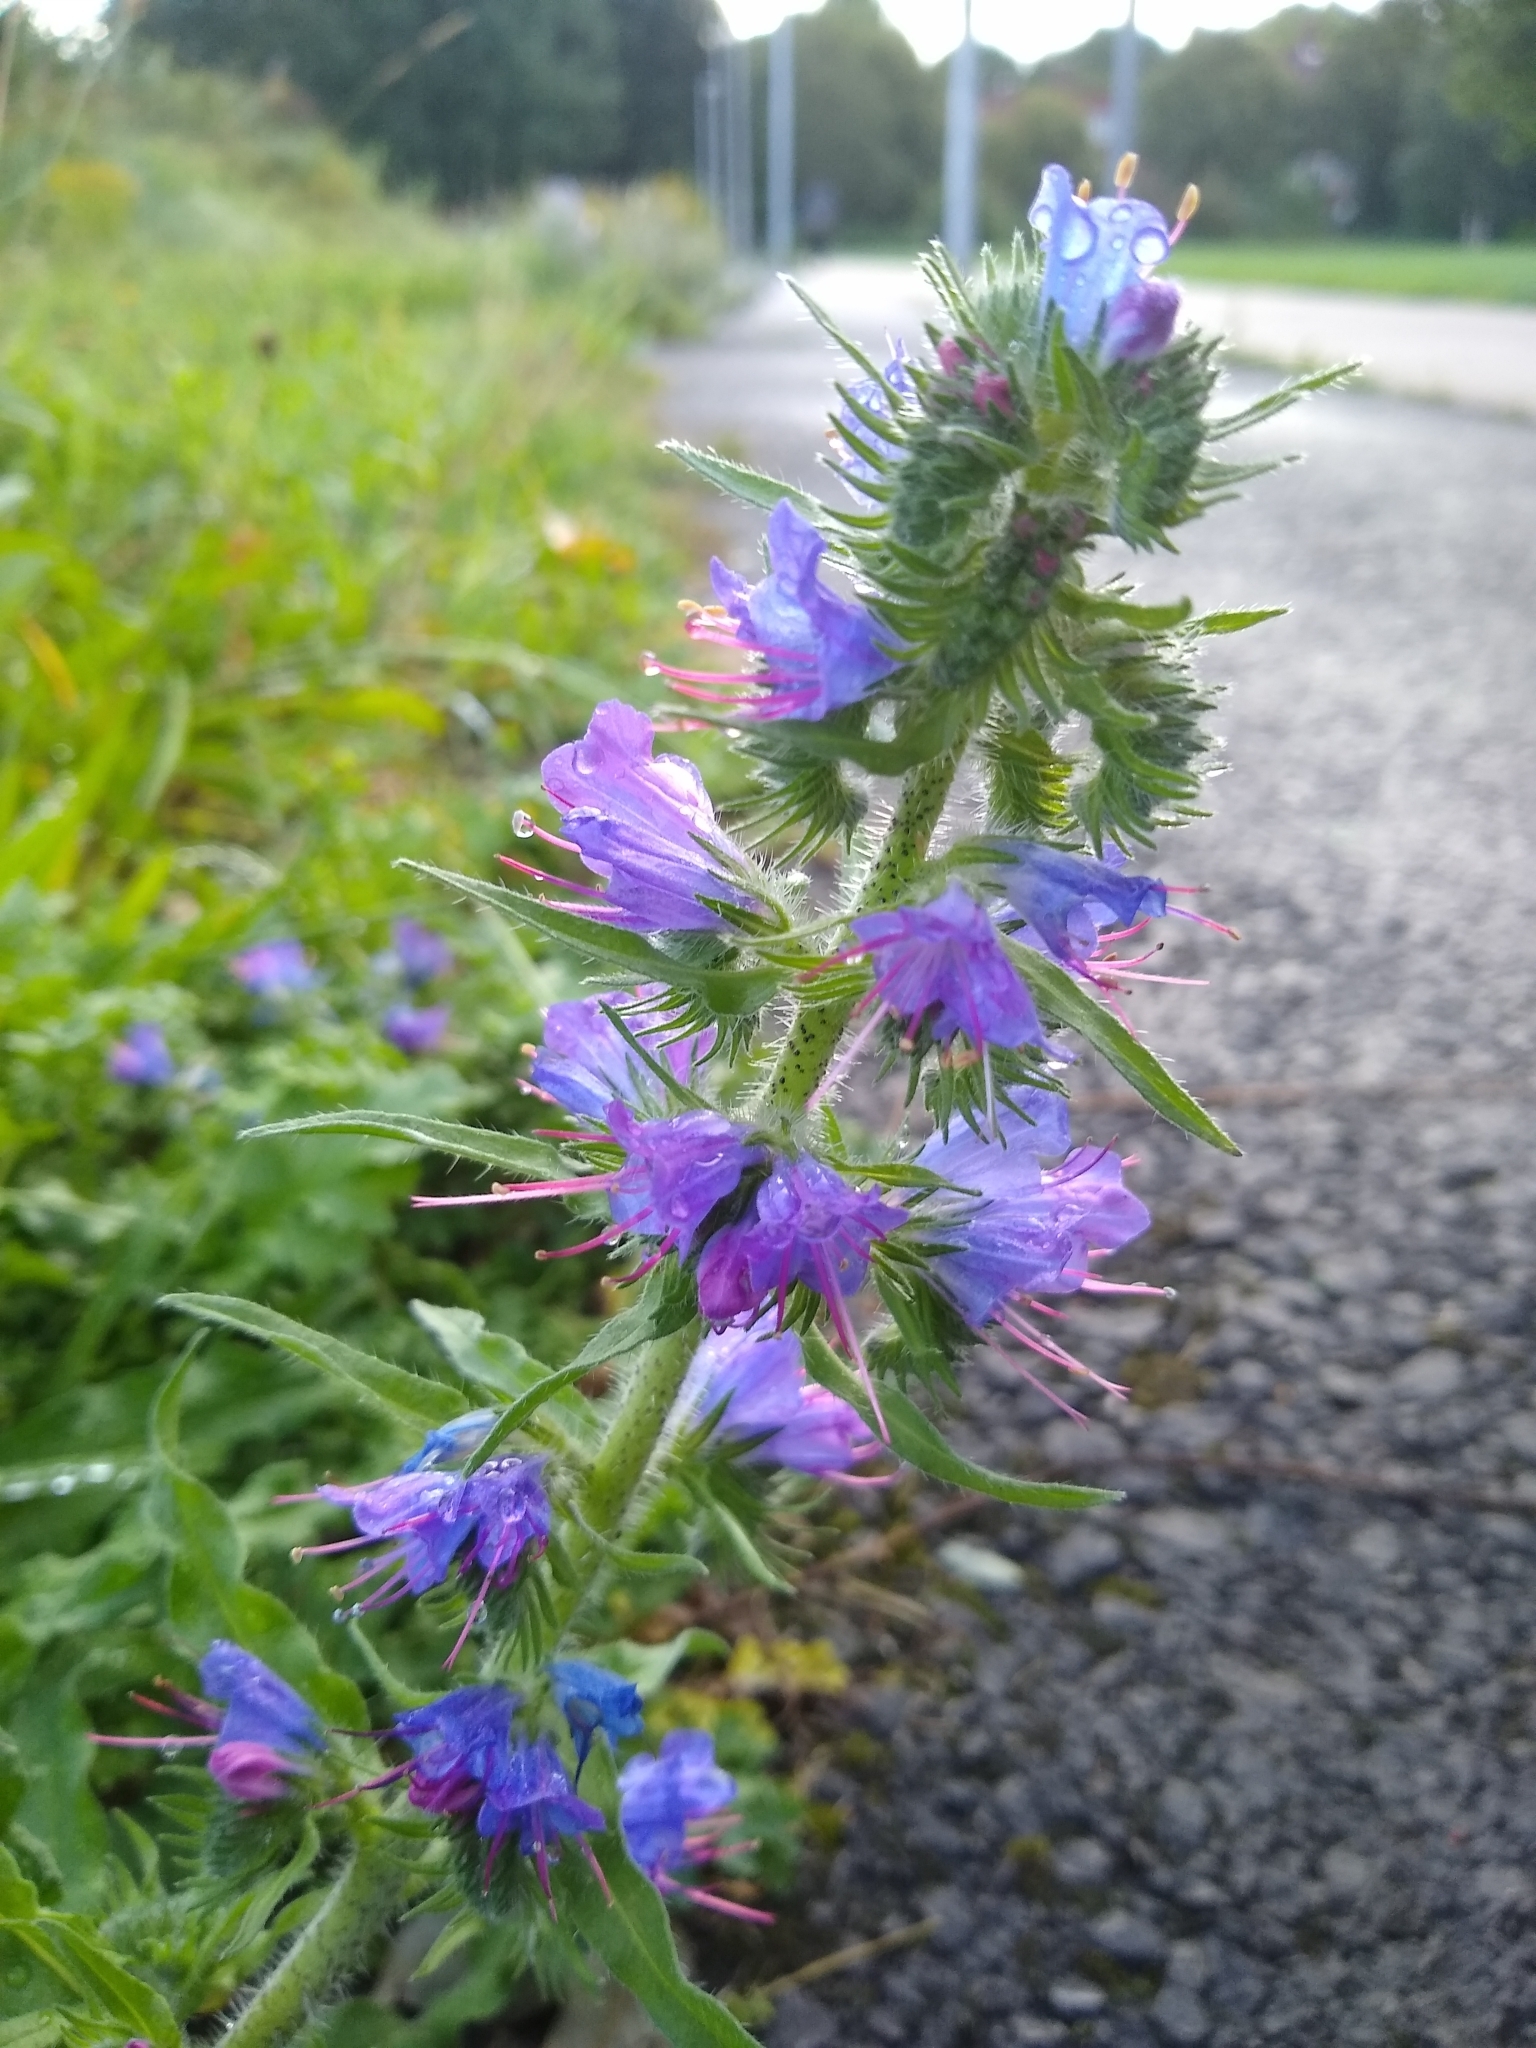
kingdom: Plantae
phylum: Tracheophyta
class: Magnoliopsida
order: Boraginales
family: Boraginaceae
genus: Echium
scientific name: Echium vulgare
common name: Common viper's bugloss
